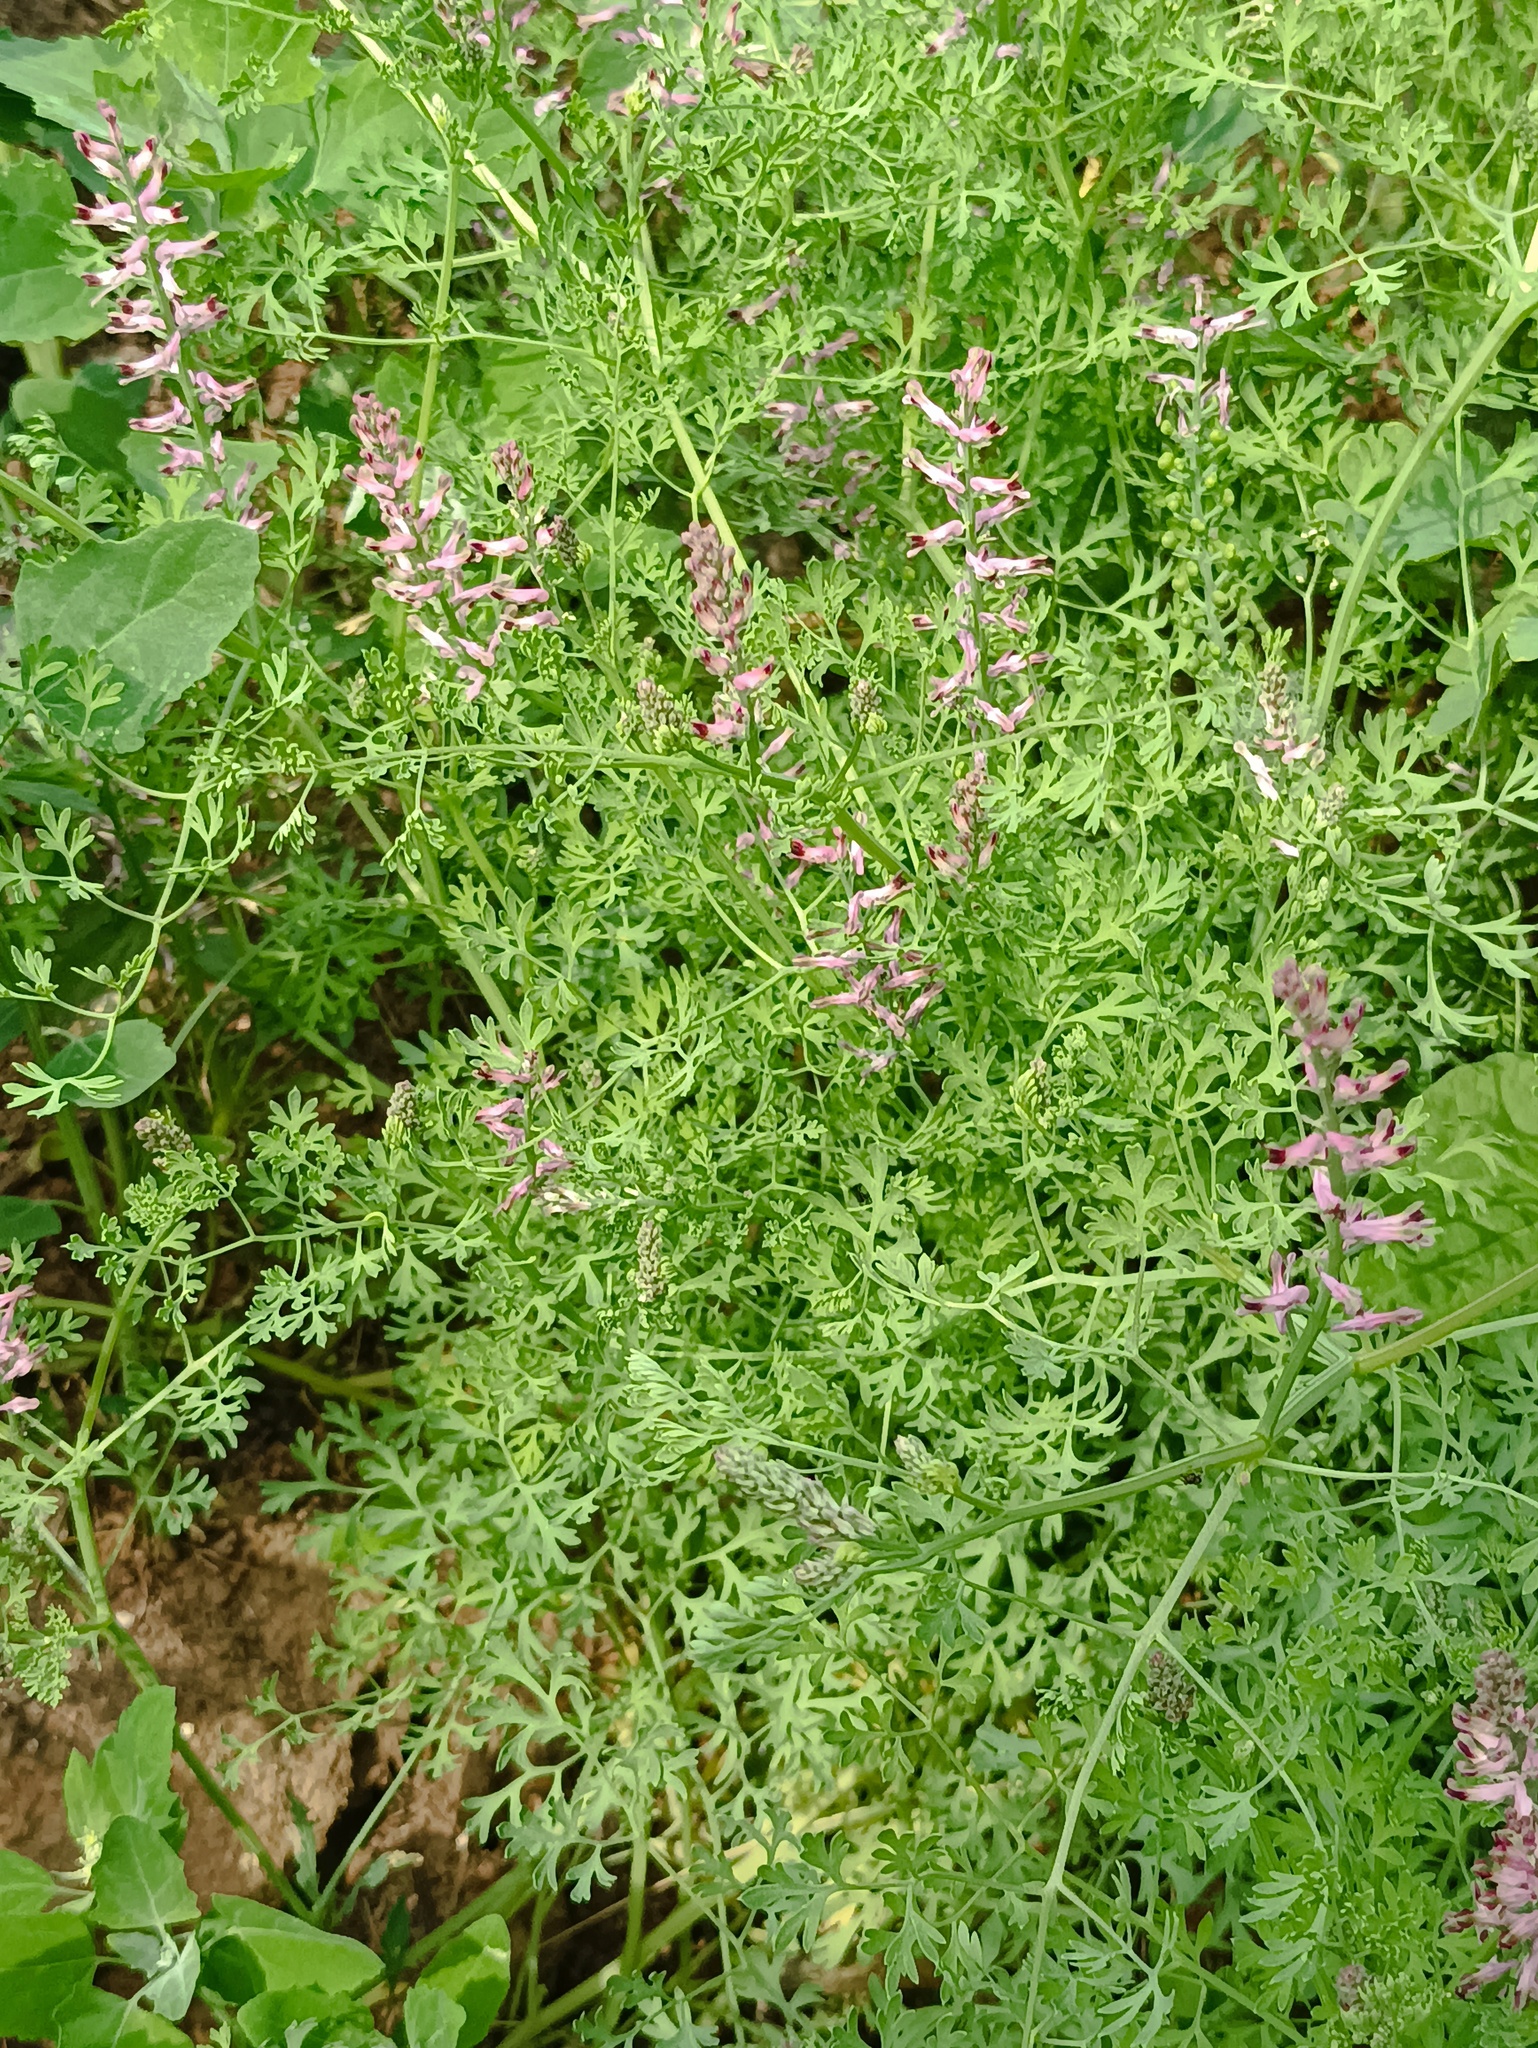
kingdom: Plantae
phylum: Tracheophyta
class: Magnoliopsida
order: Ranunculales
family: Papaveraceae
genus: Fumaria
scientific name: Fumaria officinalis
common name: Common fumitory
